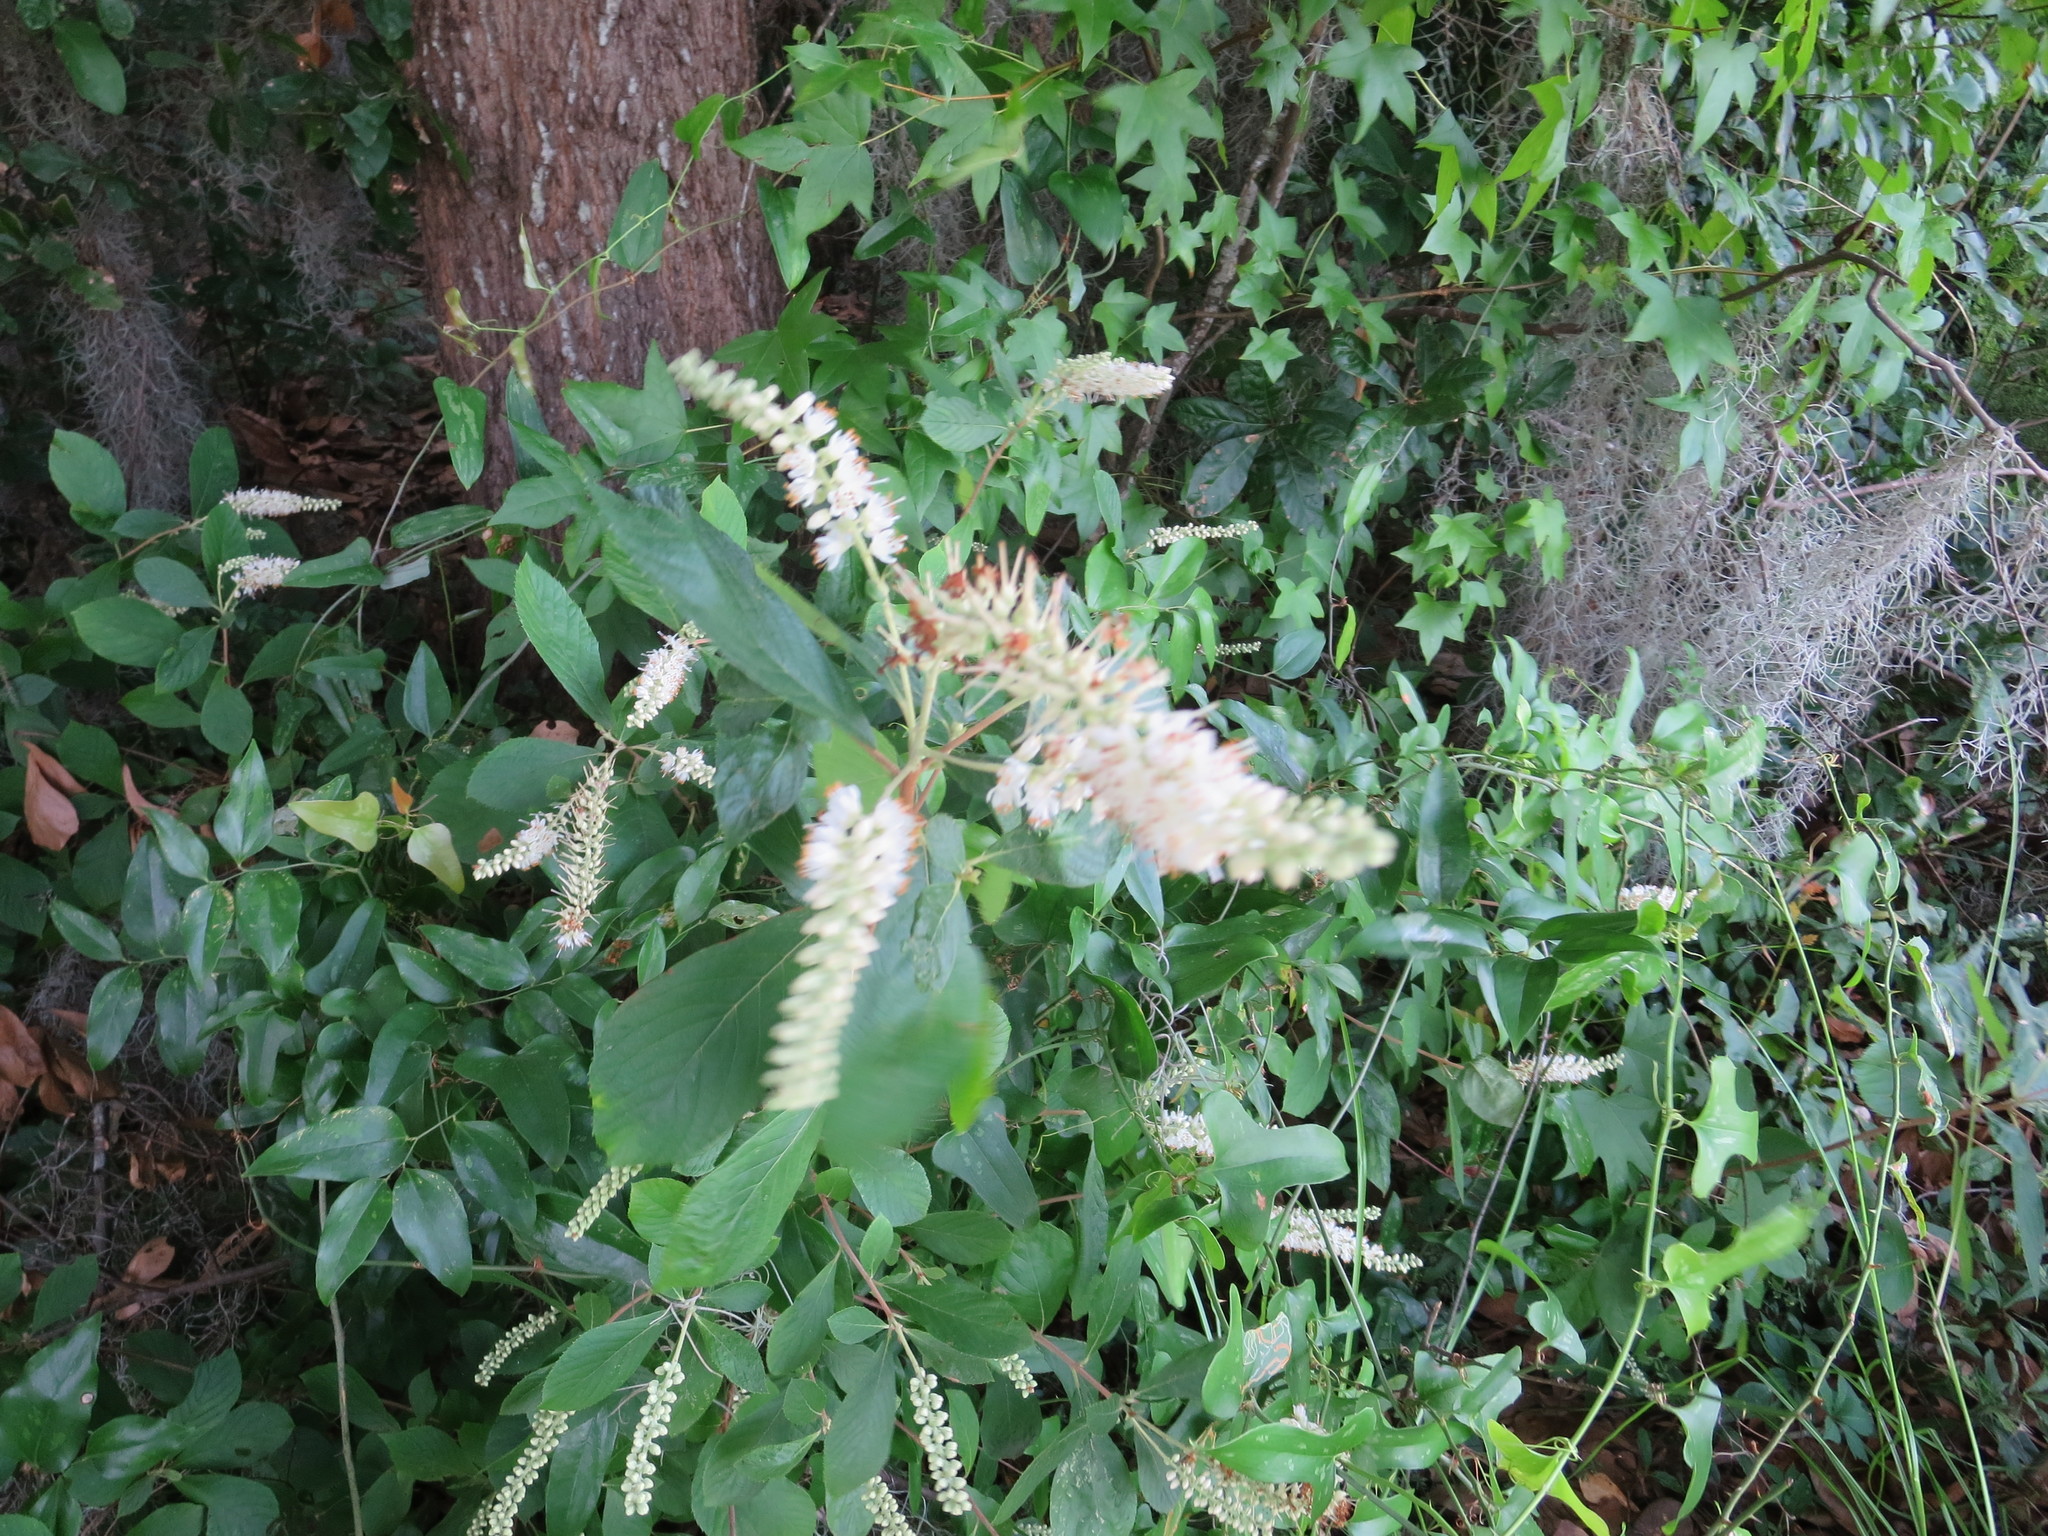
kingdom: Plantae
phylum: Tracheophyta
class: Magnoliopsida
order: Ericales
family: Clethraceae
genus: Clethra
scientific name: Clethra alnifolia
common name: Sweet pepperbush
